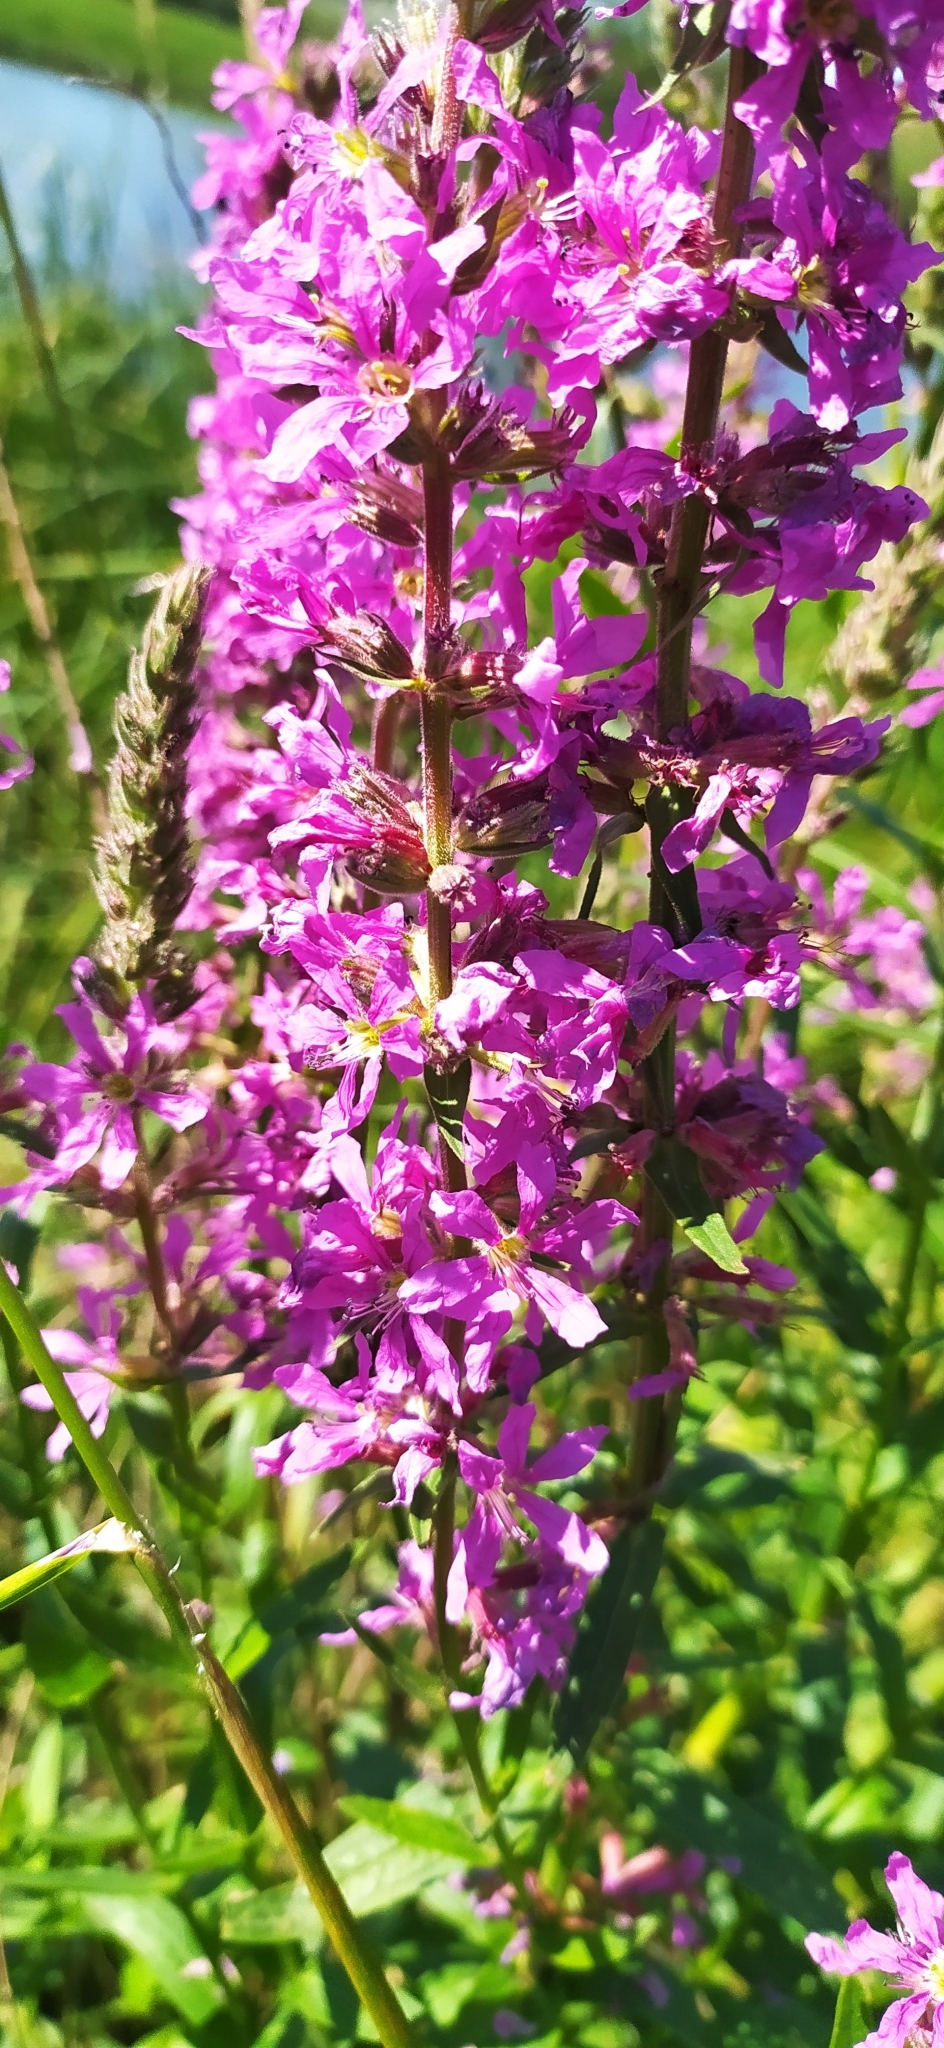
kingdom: Plantae
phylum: Tracheophyta
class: Magnoliopsida
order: Myrtales
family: Lythraceae
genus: Lythrum
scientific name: Lythrum salicaria
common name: Purple loosestrife
